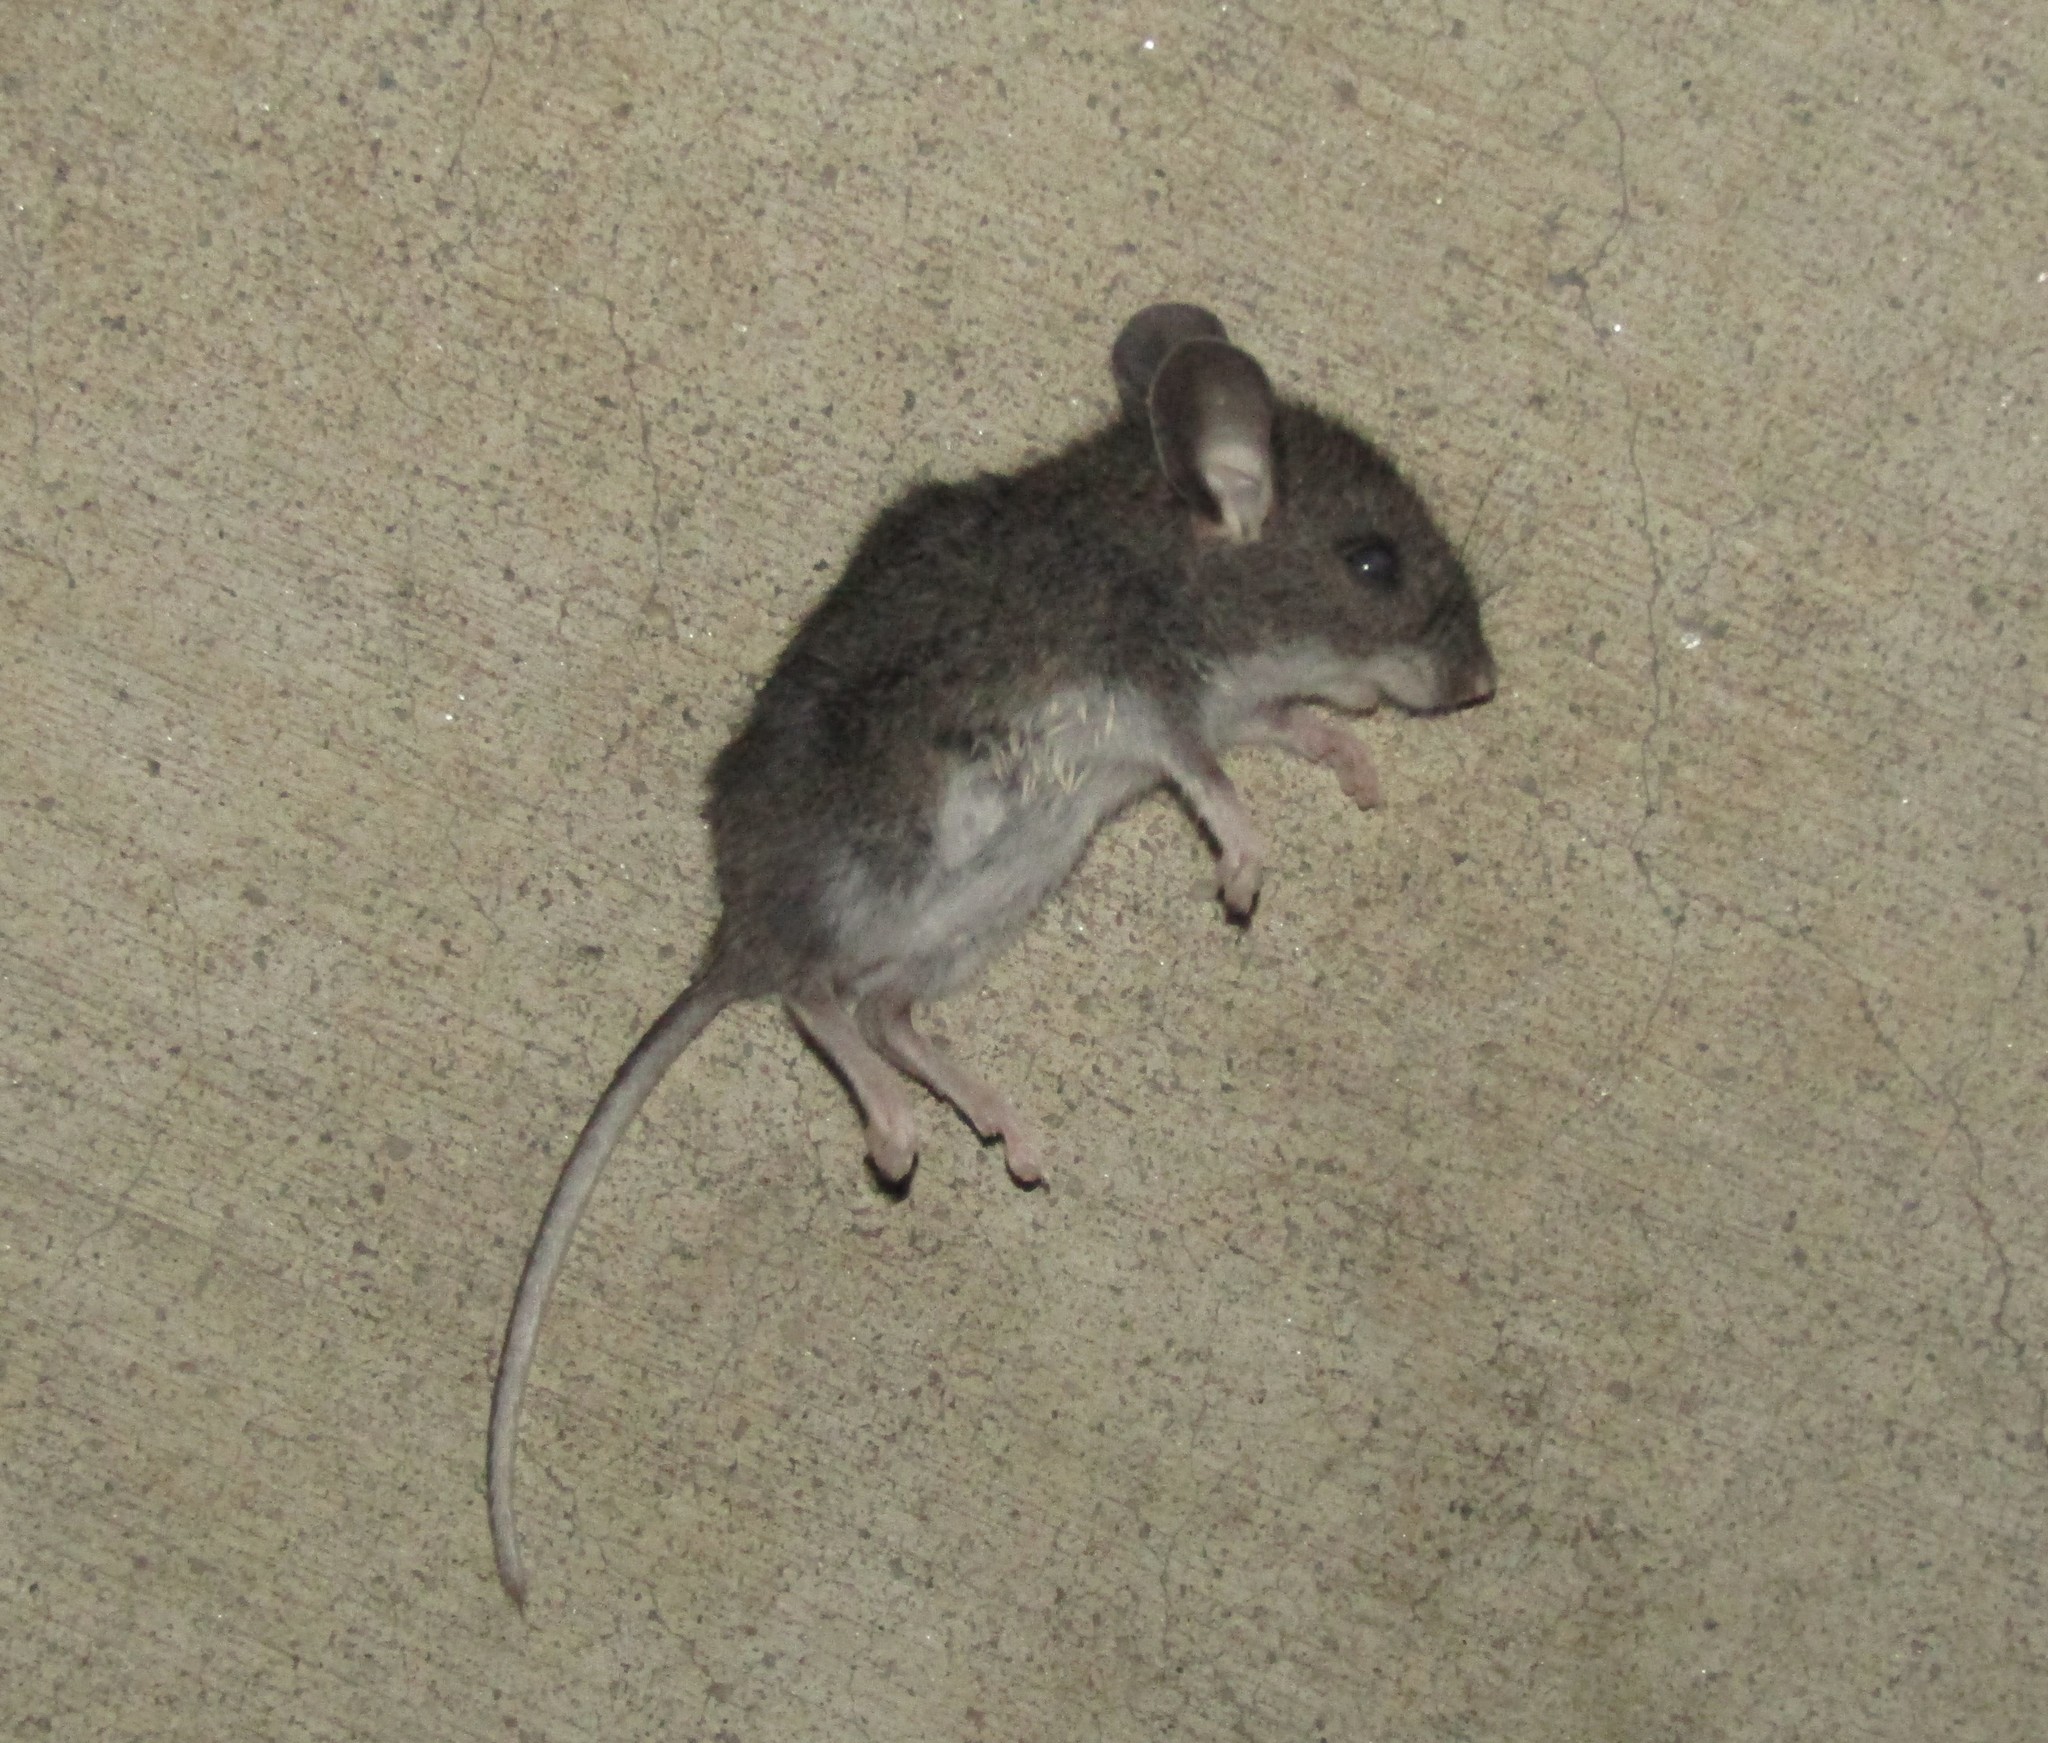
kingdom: Animalia
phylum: Chordata
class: Mammalia
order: Rodentia
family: Cricetidae
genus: Peromyscus
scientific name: Peromyscus maniculatus
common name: Deer mouse
